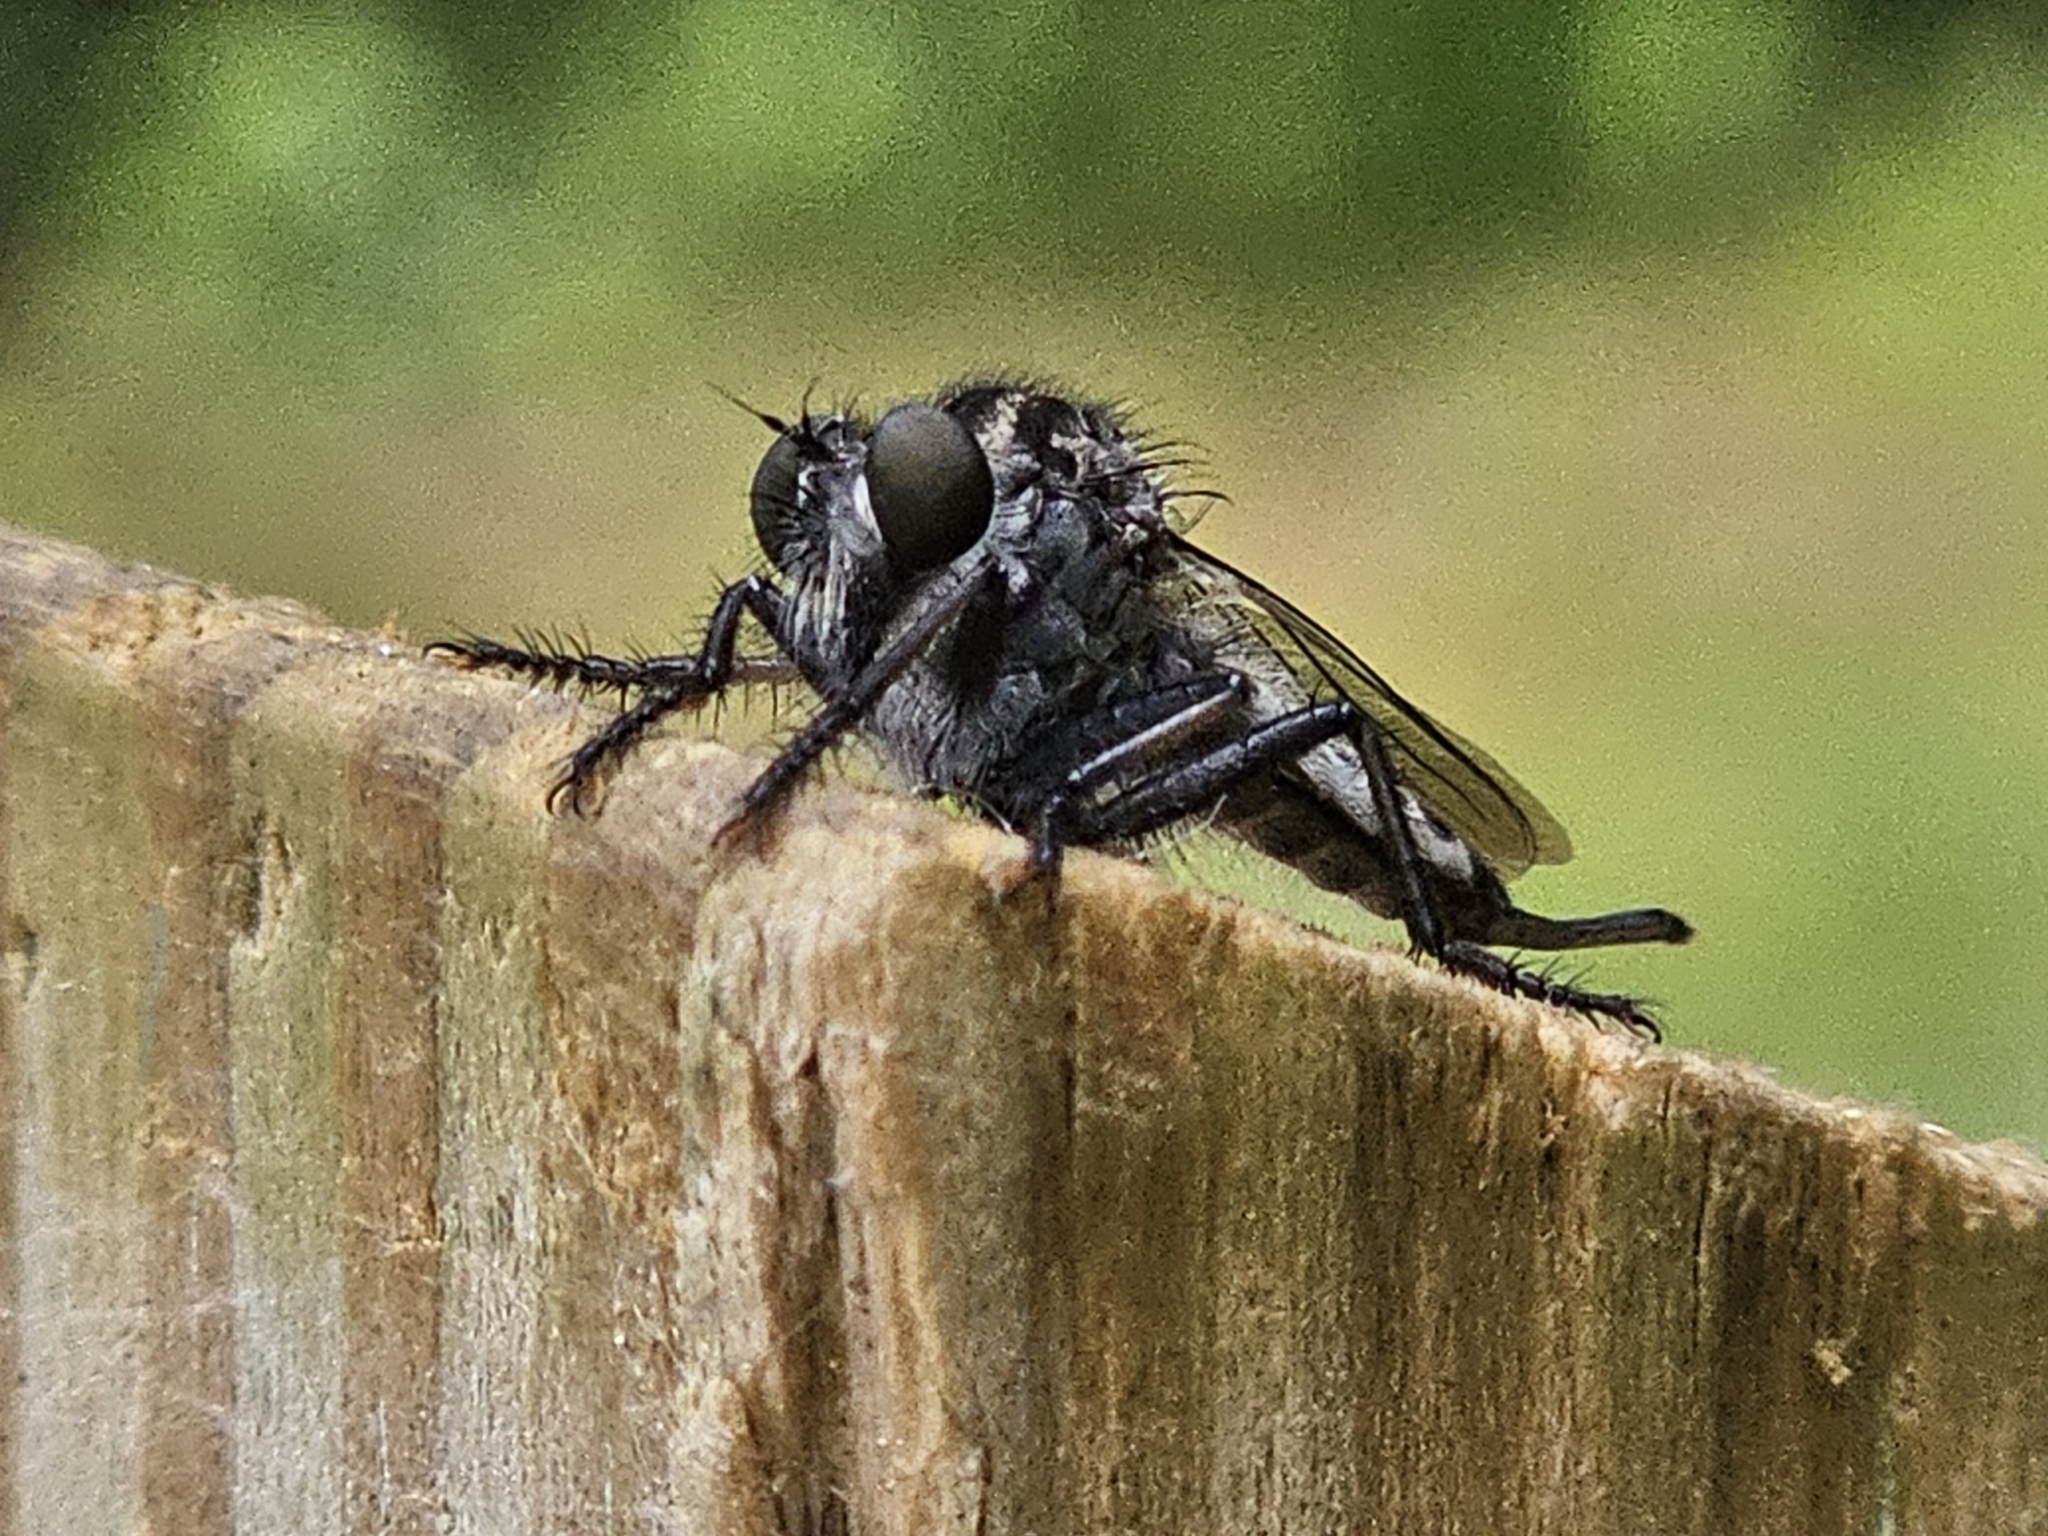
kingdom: Animalia
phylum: Arthropoda
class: Insecta
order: Diptera
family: Asilidae
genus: Efferia
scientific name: Efferia aestuans
